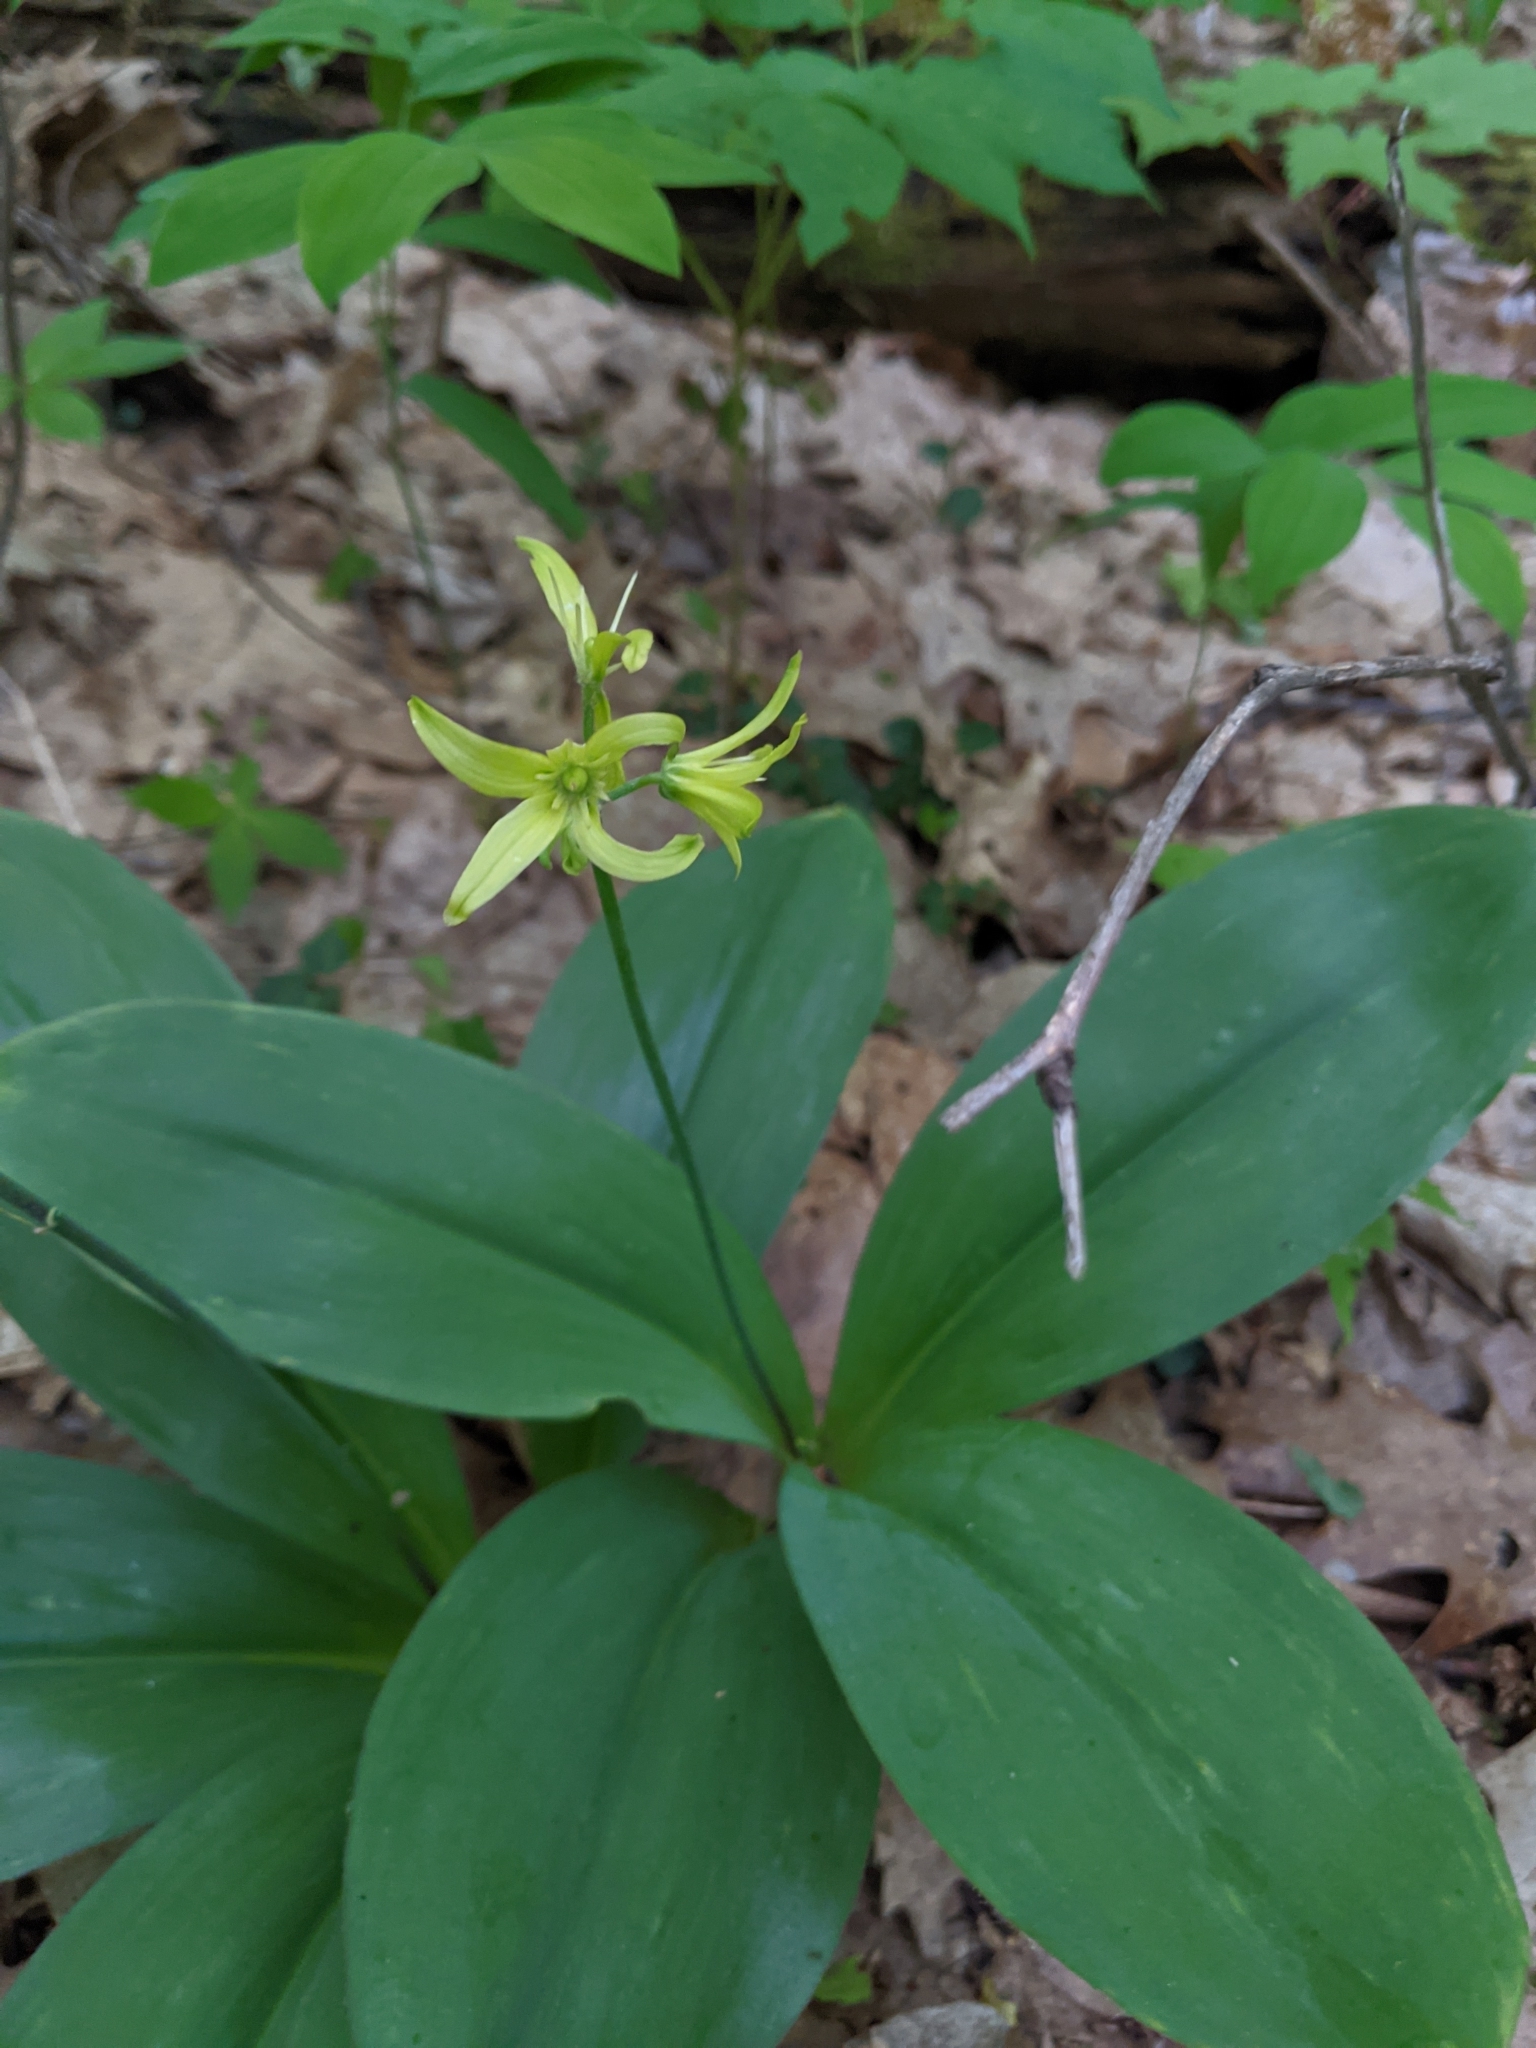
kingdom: Plantae
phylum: Tracheophyta
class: Liliopsida
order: Liliales
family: Liliaceae
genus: Clintonia
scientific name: Clintonia borealis
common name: Yellow clintonia
